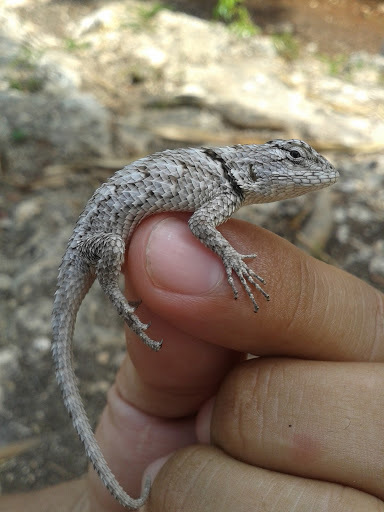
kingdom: Animalia
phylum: Chordata
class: Squamata
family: Phrynosomatidae
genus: Sceloporus
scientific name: Sceloporus lundelli
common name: Lundell's spiny lizard
